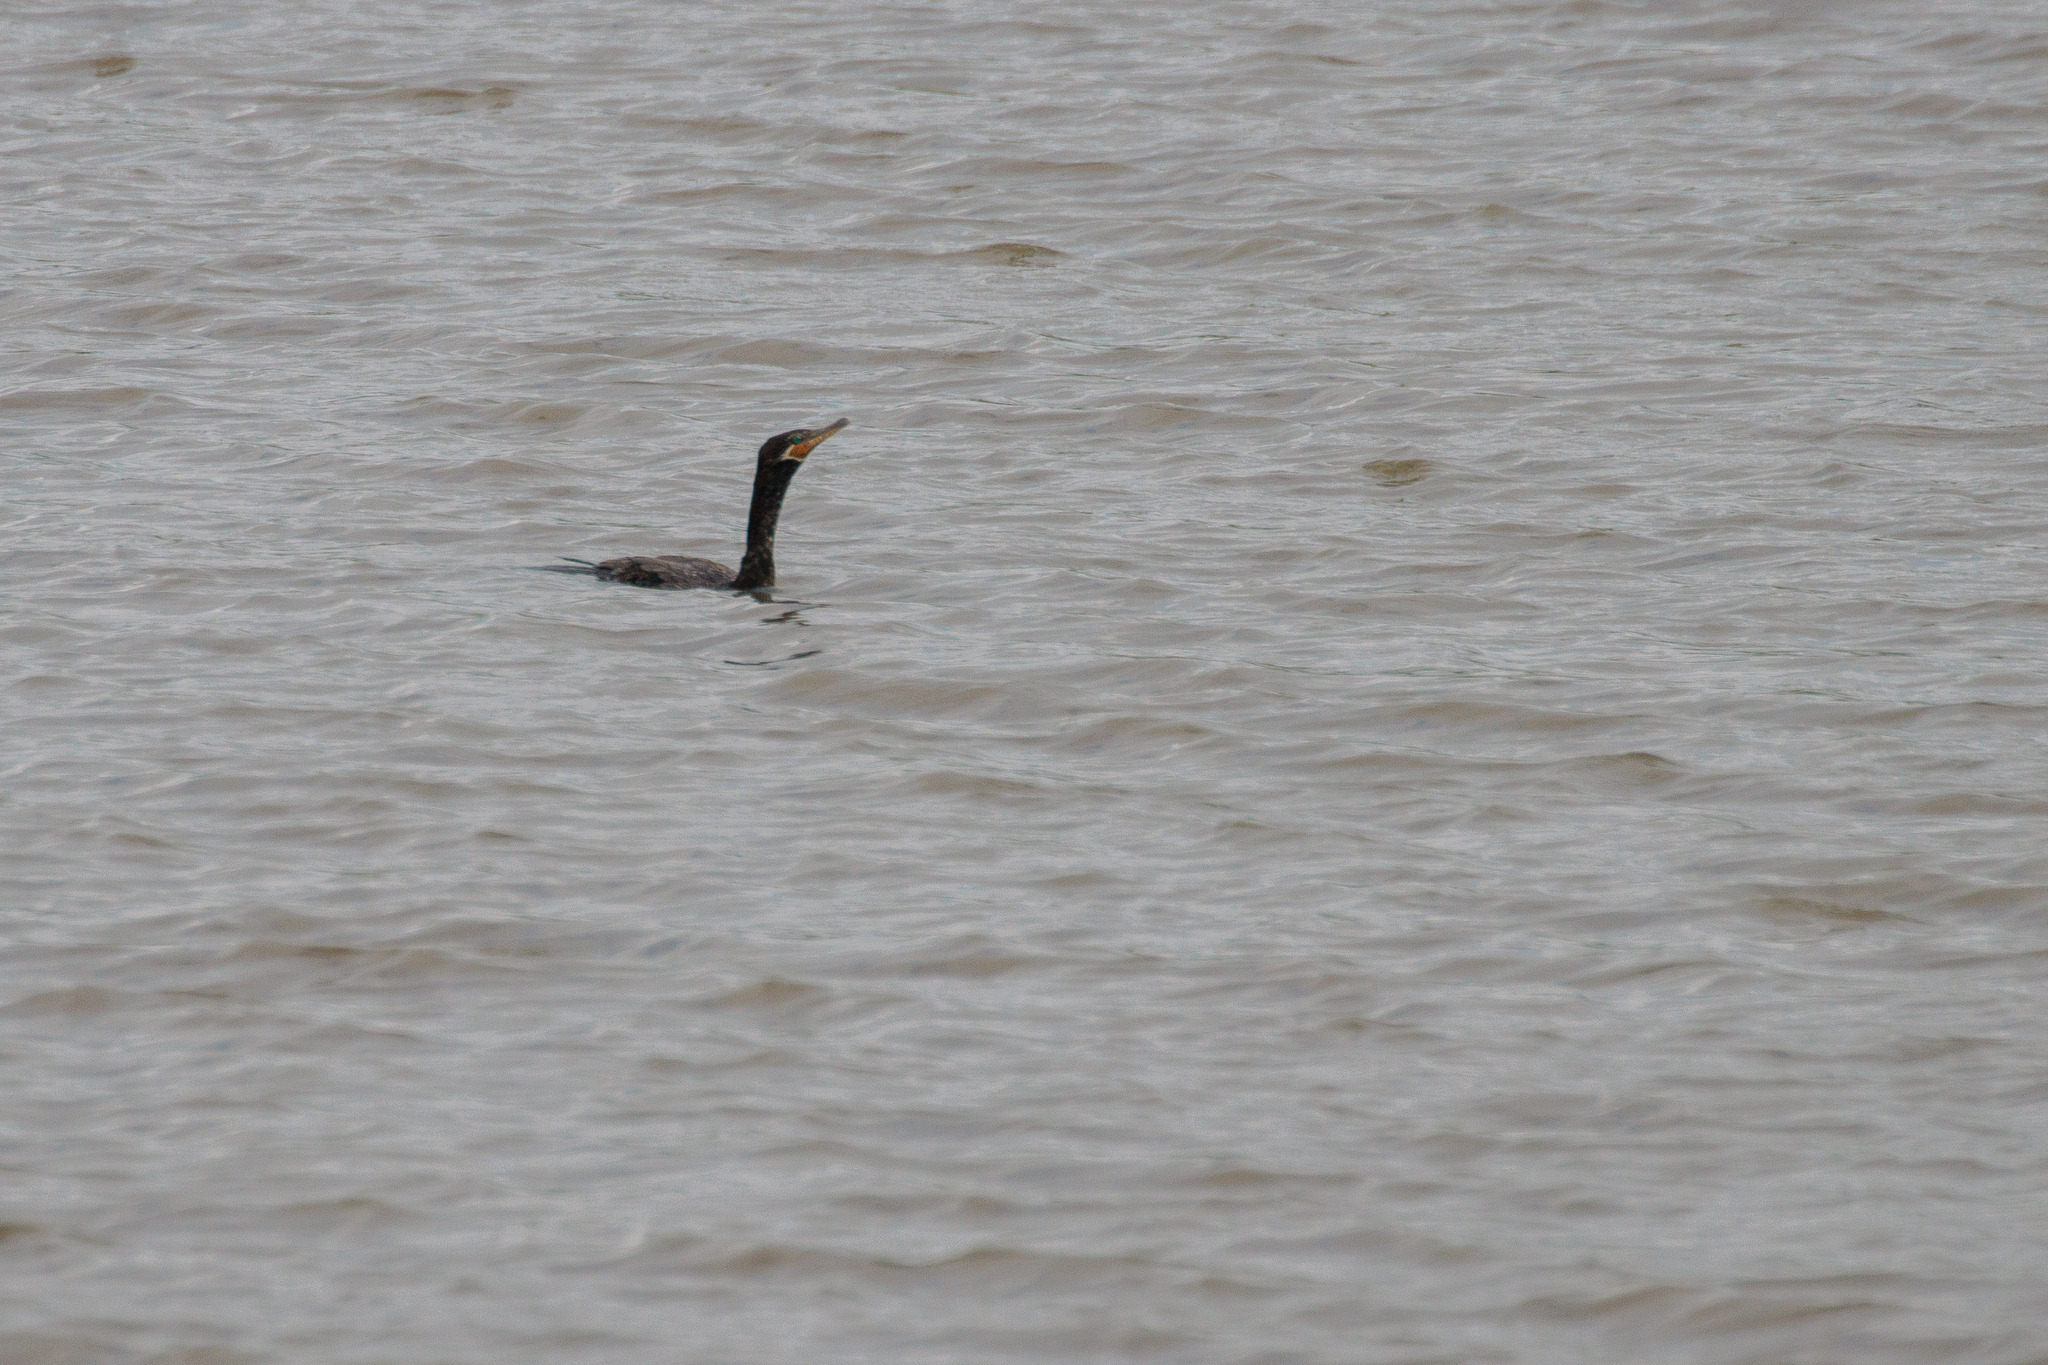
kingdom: Animalia
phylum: Chordata
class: Aves
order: Suliformes
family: Phalacrocoracidae
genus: Phalacrocorax
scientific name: Phalacrocorax brasilianus
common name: Neotropic cormorant
